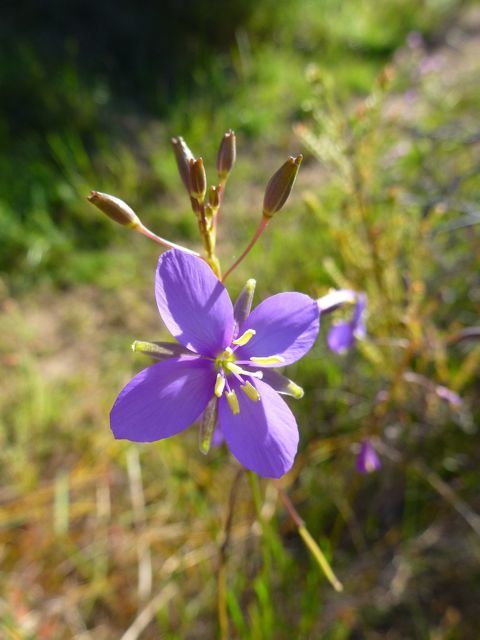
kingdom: Plantae
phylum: Tracheophyta
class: Magnoliopsida
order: Brassicales
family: Brassicaceae
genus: Heliophila
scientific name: Heliophila subulata
